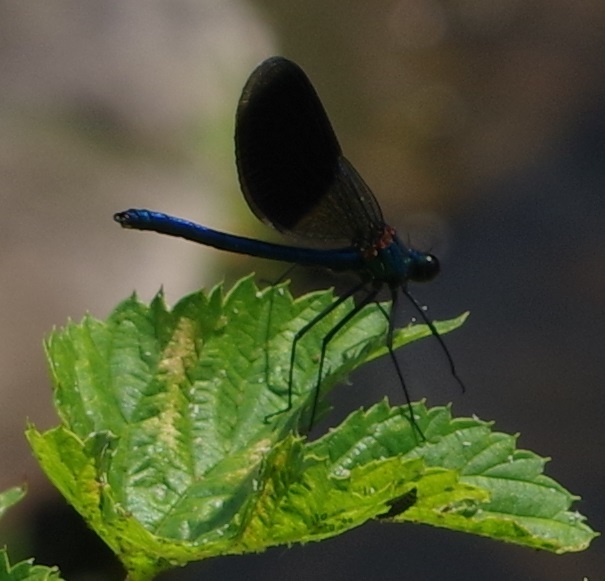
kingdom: Animalia
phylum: Arthropoda
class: Insecta
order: Odonata
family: Calopterygidae
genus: Calopteryx
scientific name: Calopteryx virgo
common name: Beautiful demoiselle
